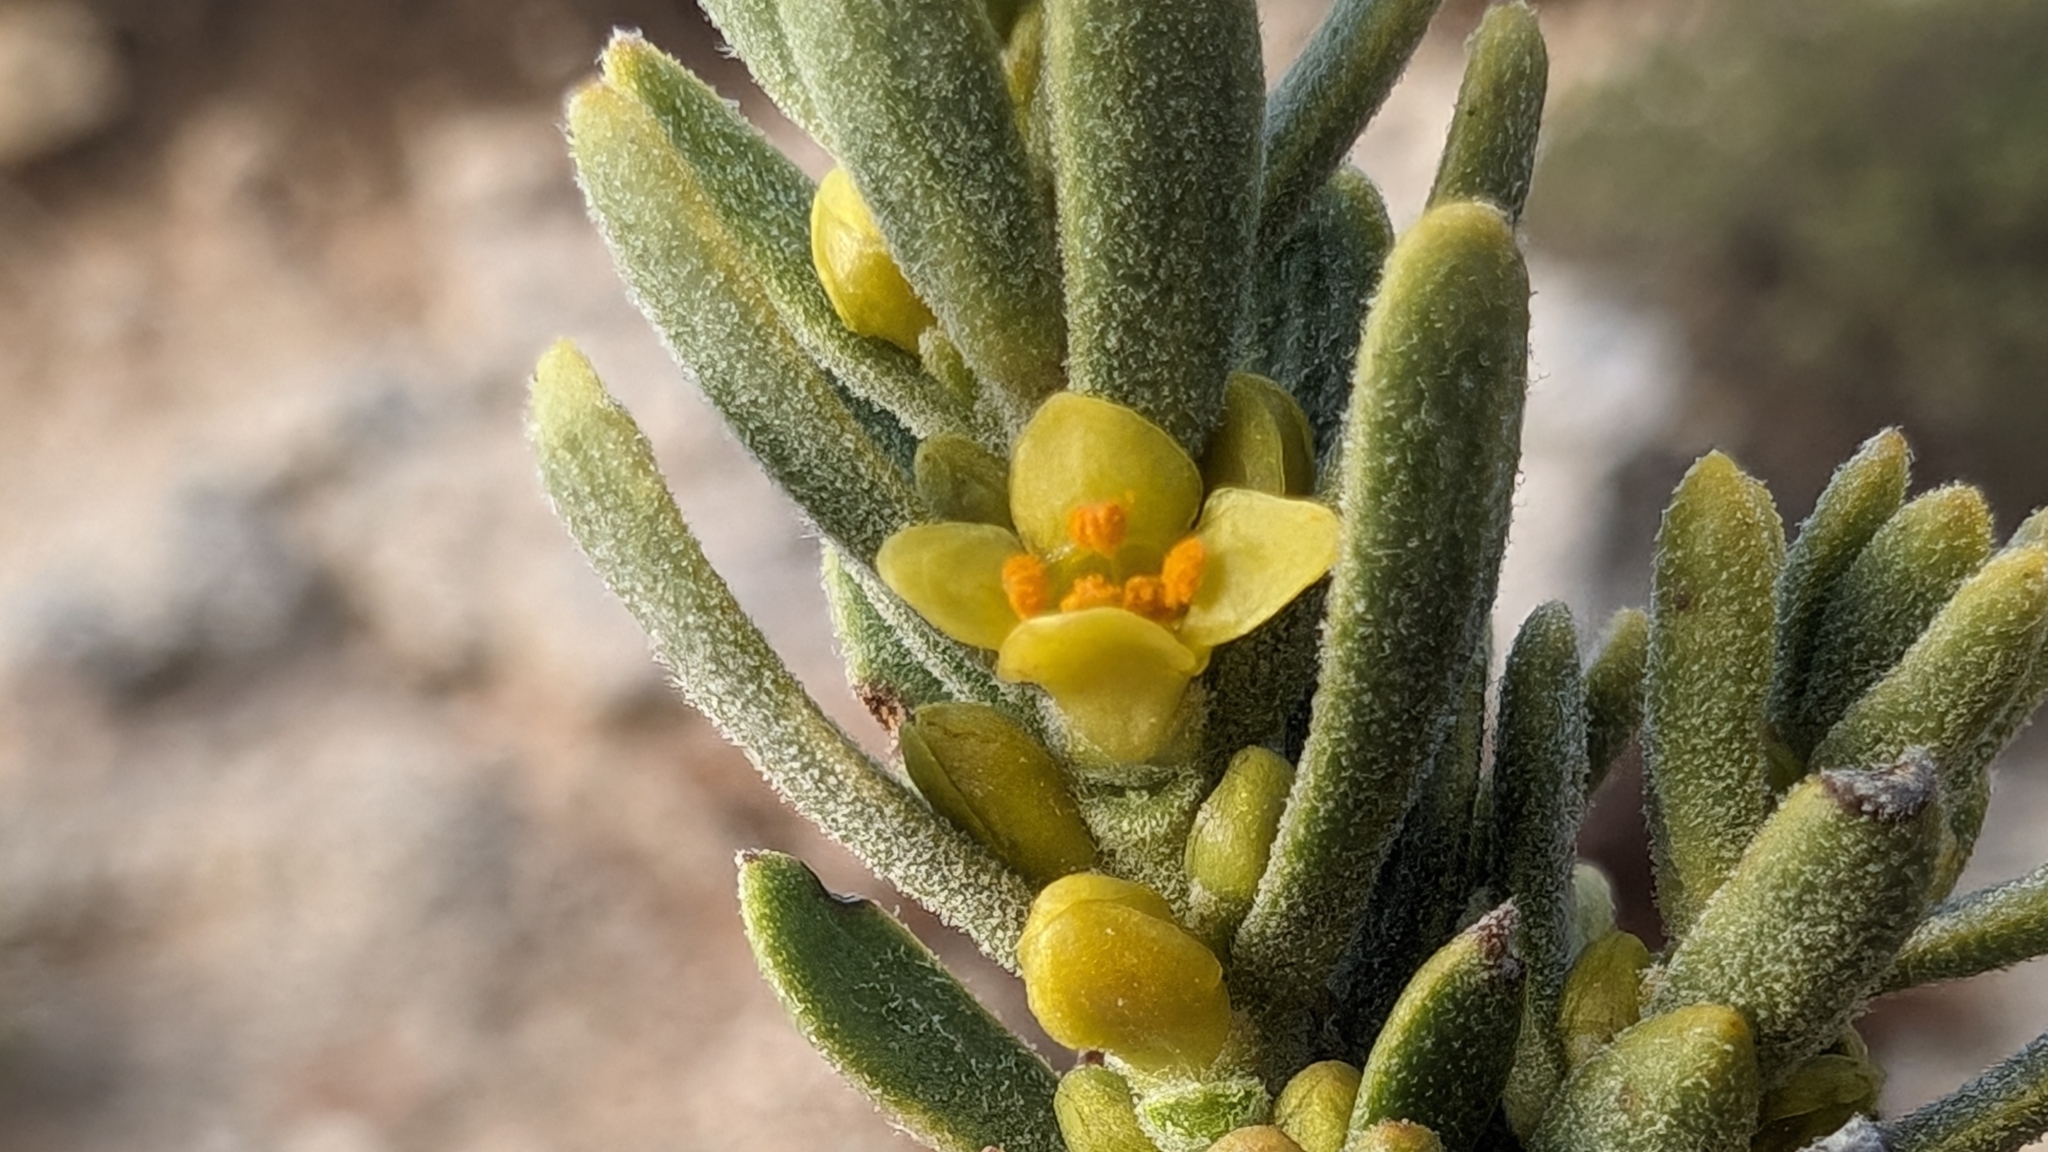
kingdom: Plantae
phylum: Tracheophyta
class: Magnoliopsida
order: Malvales
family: Thymelaeaceae
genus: Thymelaea
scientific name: Thymelaea tinctoria
